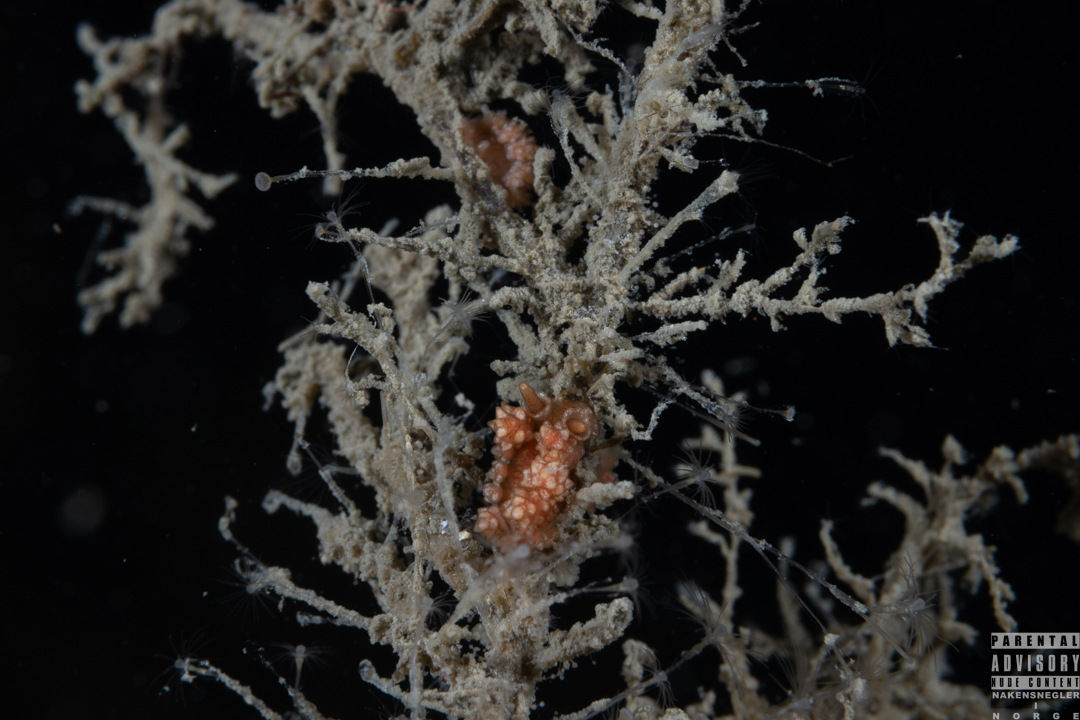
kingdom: Animalia
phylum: Mollusca
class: Gastropoda
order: Nudibranchia
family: Dotidae
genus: Doto
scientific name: Doto fragilis
